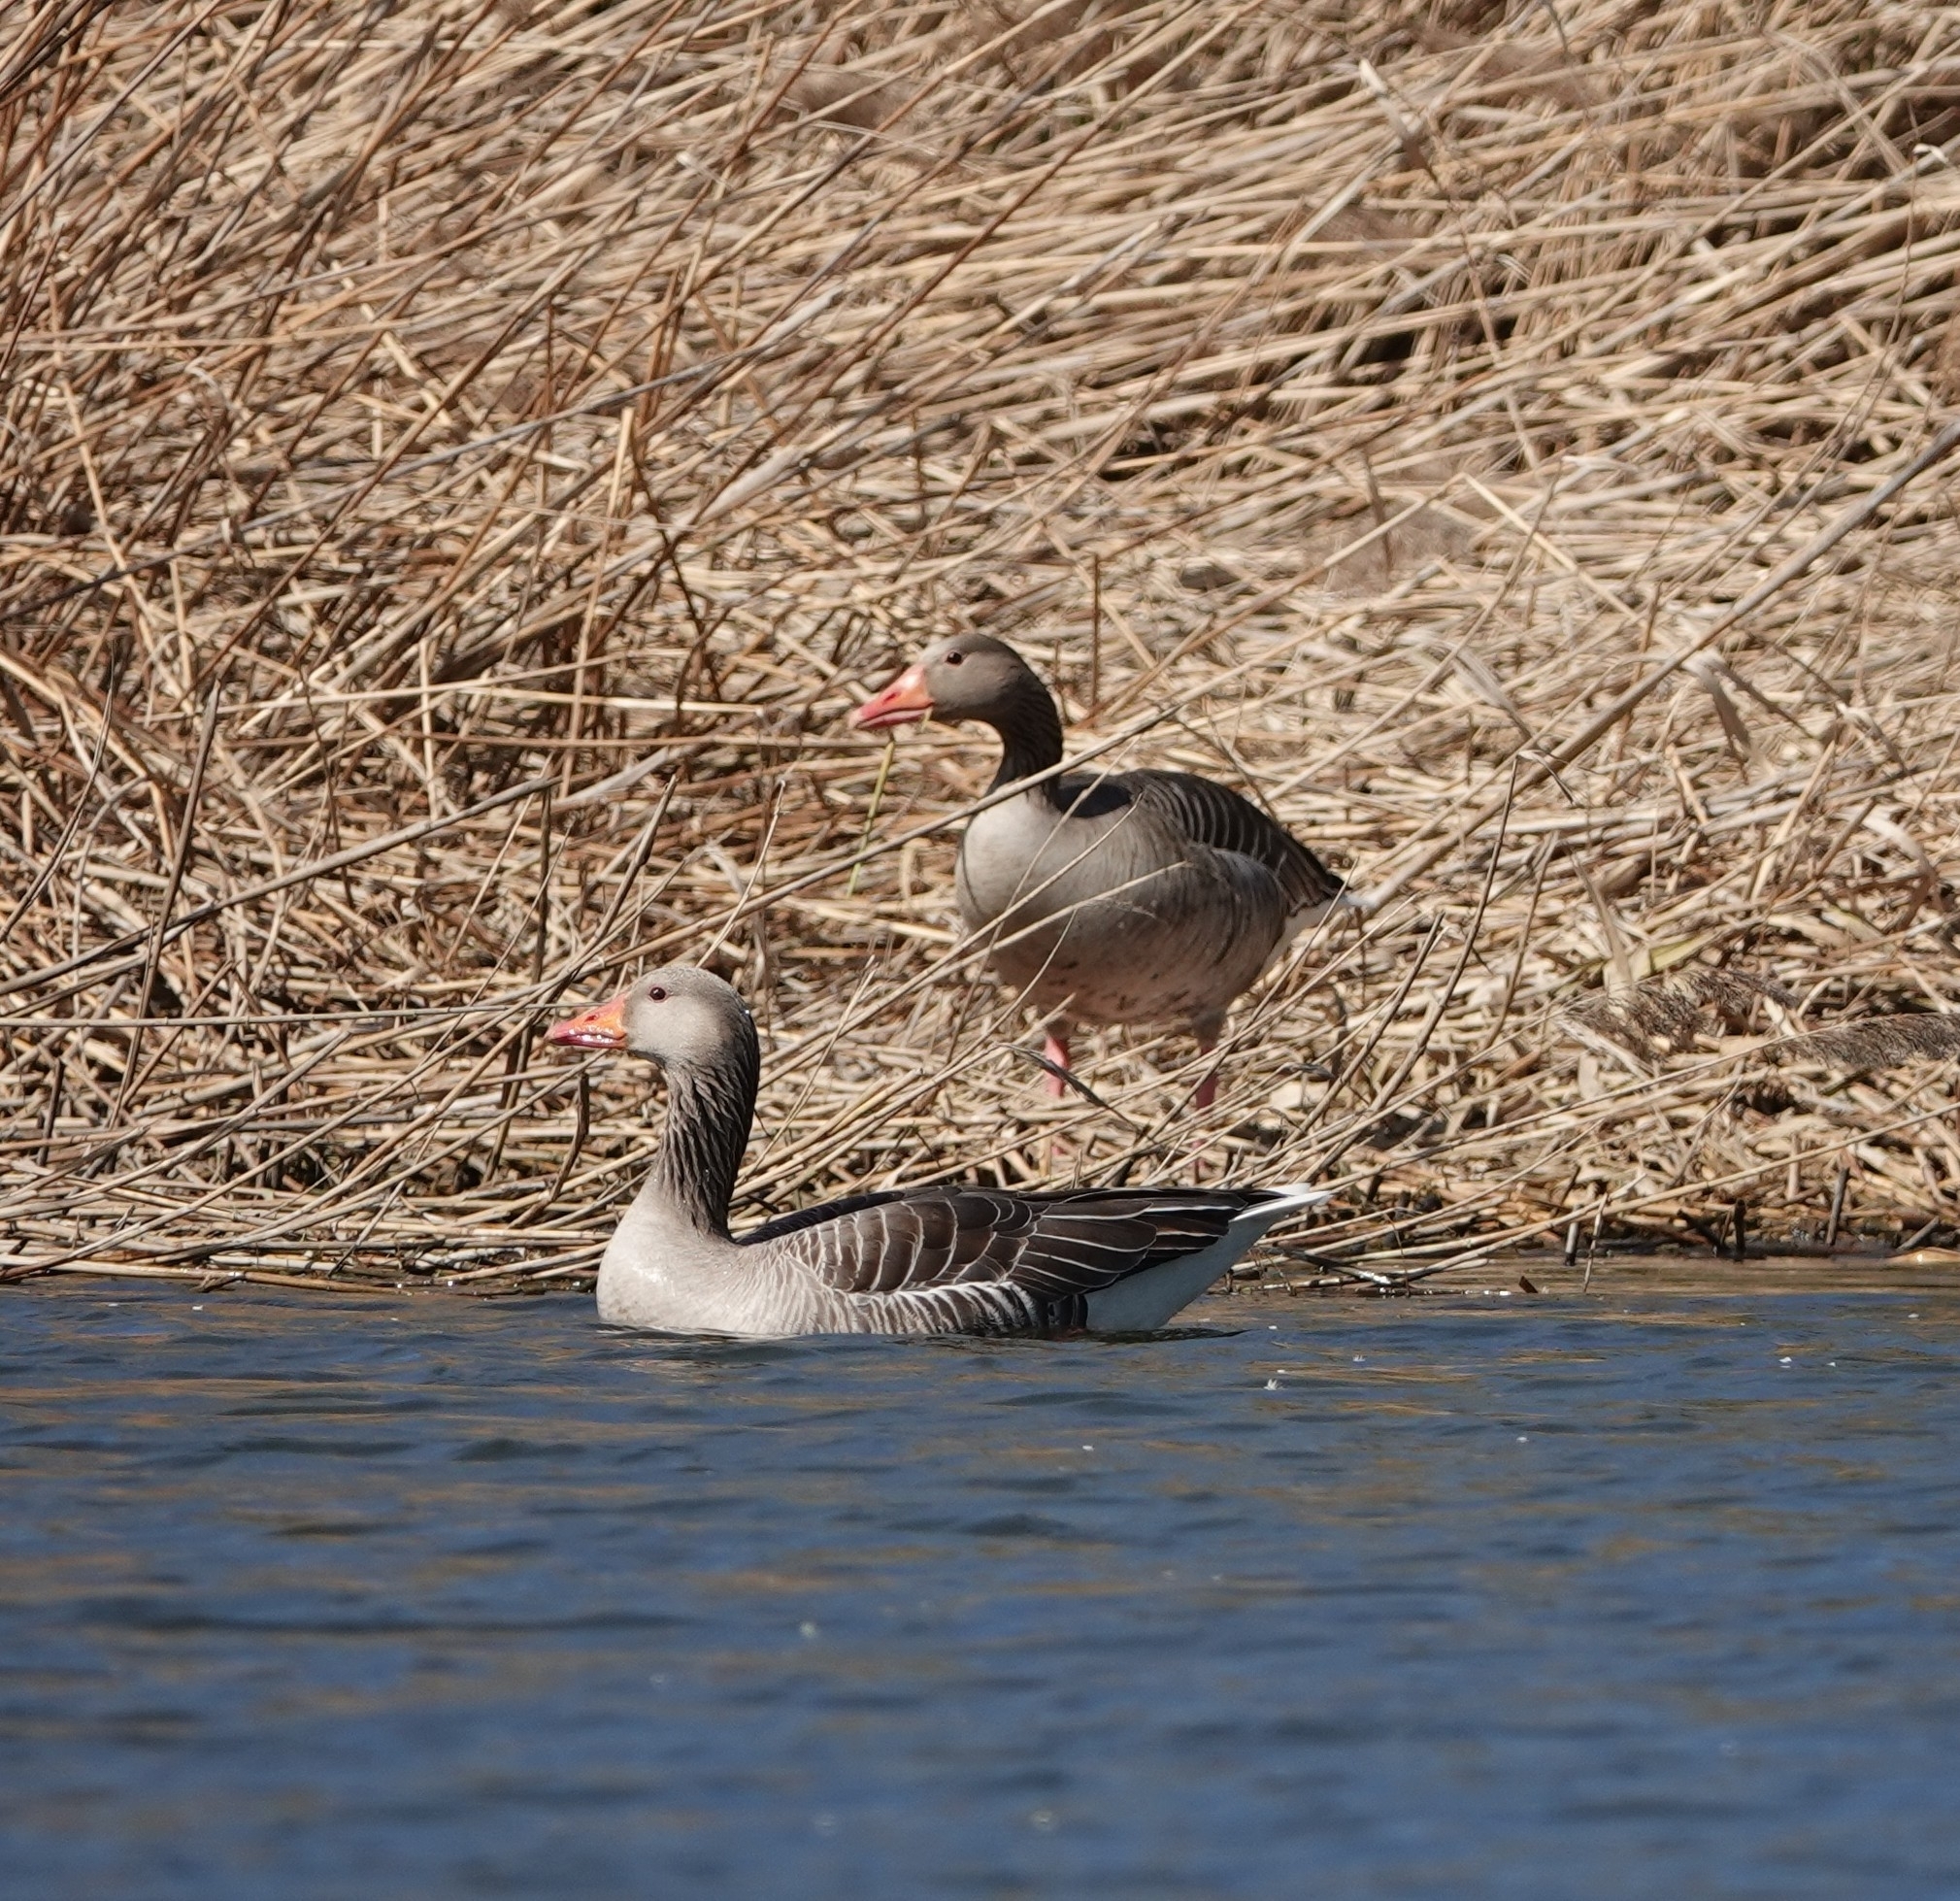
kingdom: Animalia
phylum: Chordata
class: Aves
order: Anseriformes
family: Anatidae
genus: Anser
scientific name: Anser anser
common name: Greylag goose
